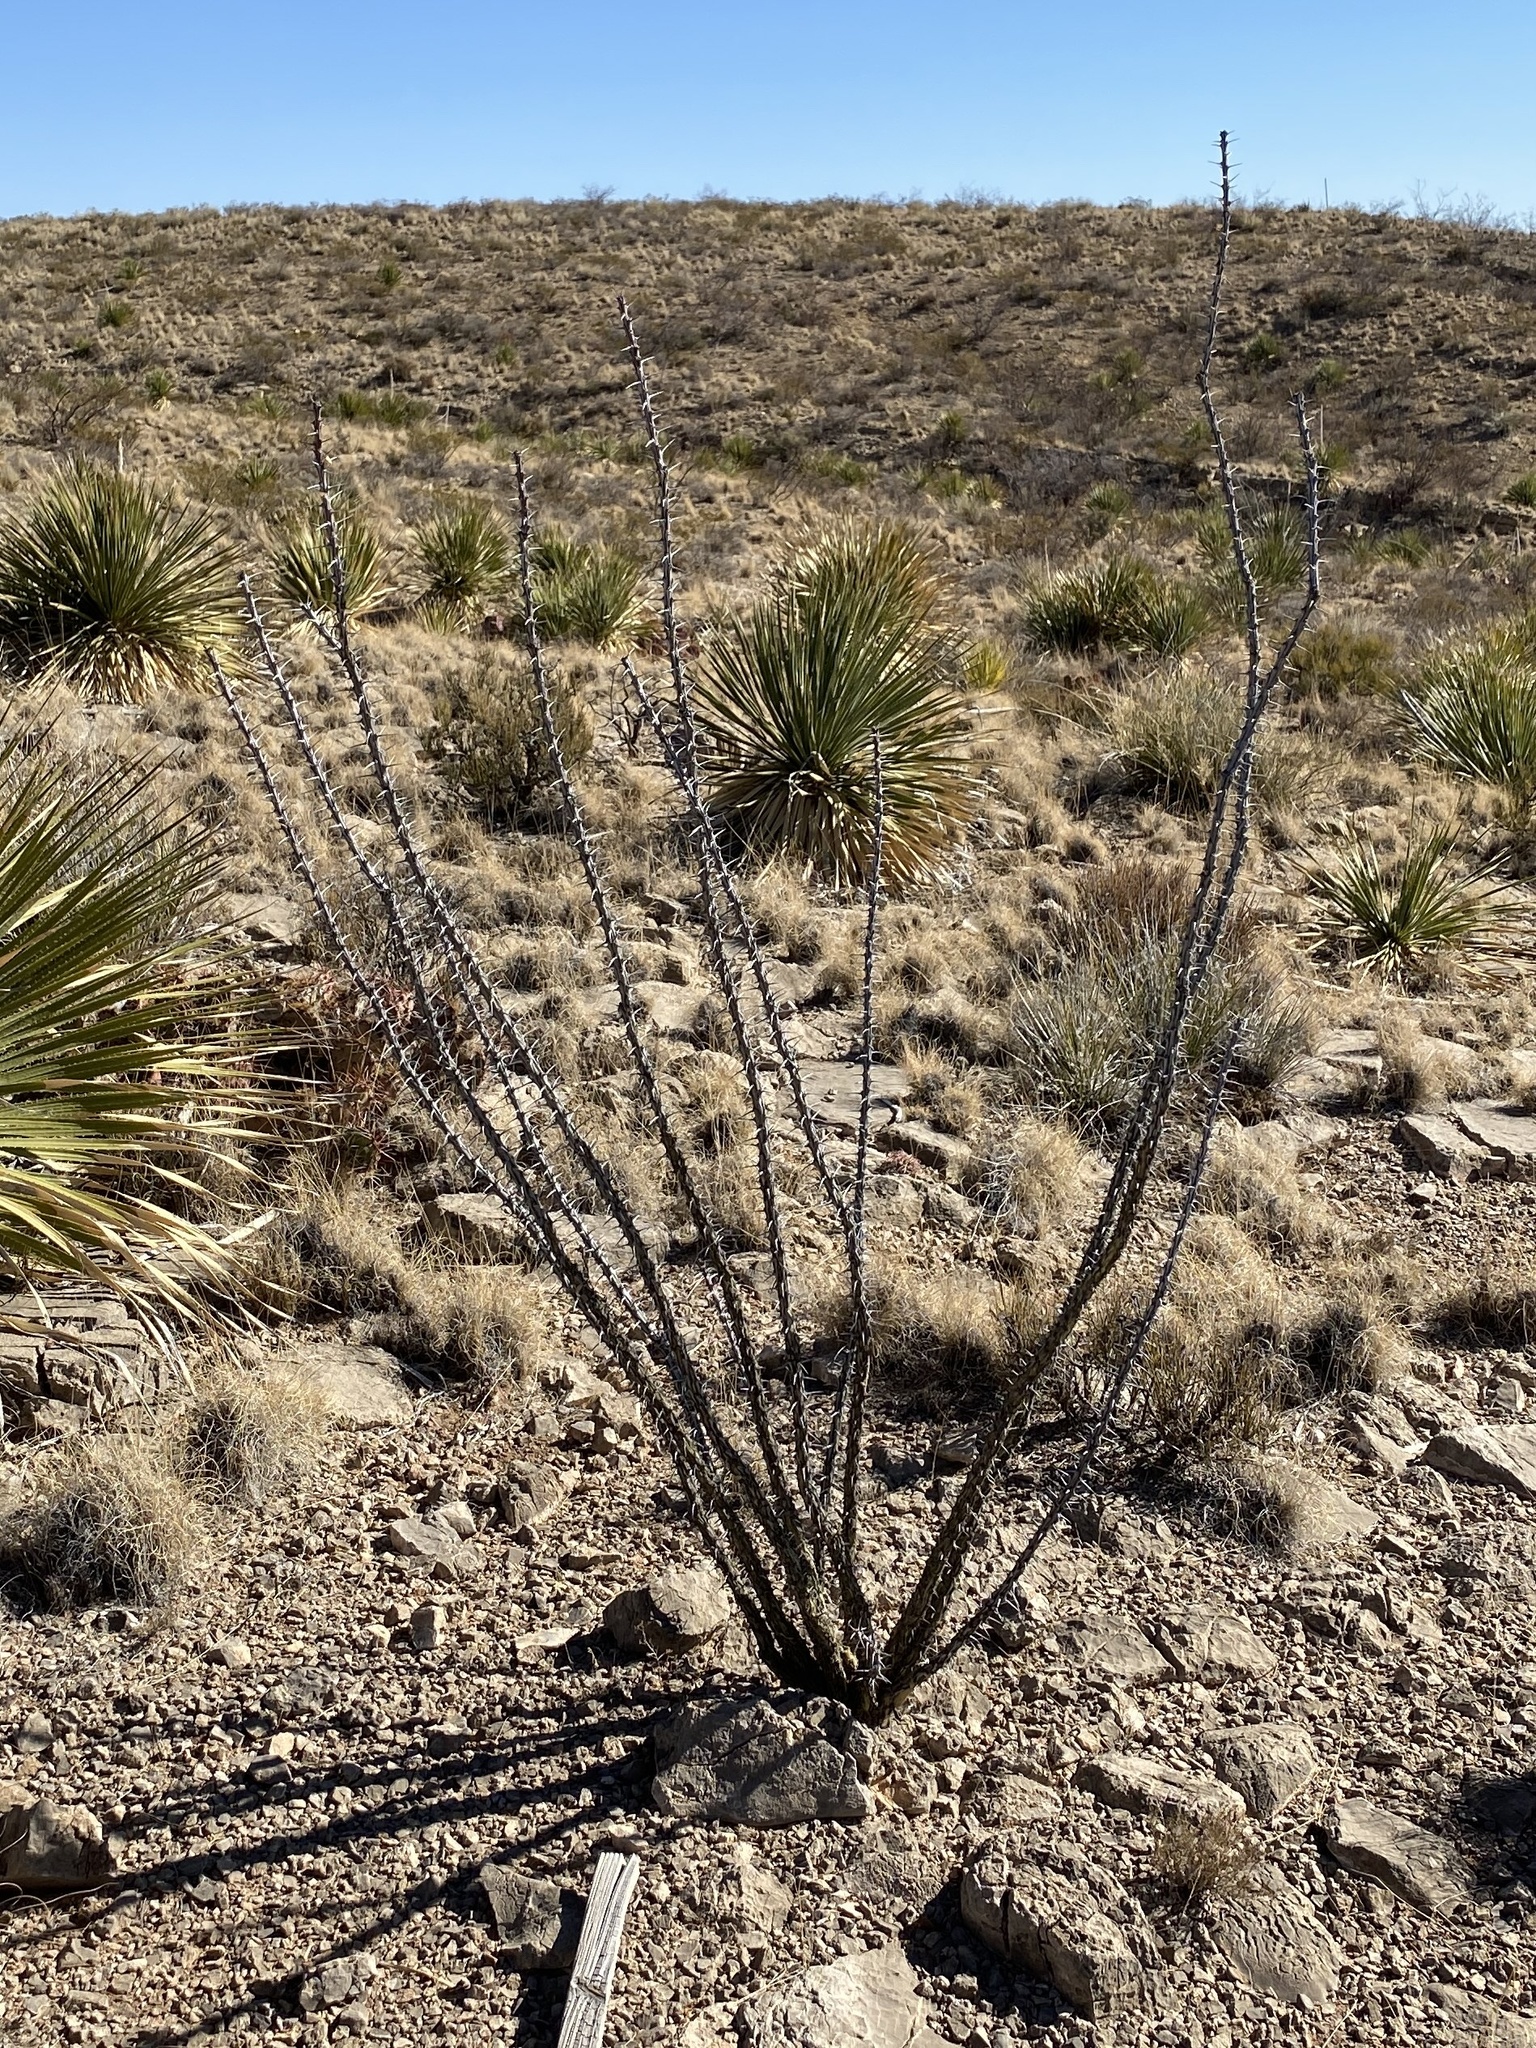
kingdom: Plantae
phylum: Tracheophyta
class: Magnoliopsida
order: Ericales
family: Fouquieriaceae
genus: Fouquieria
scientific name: Fouquieria splendens
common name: Vine-cactus
